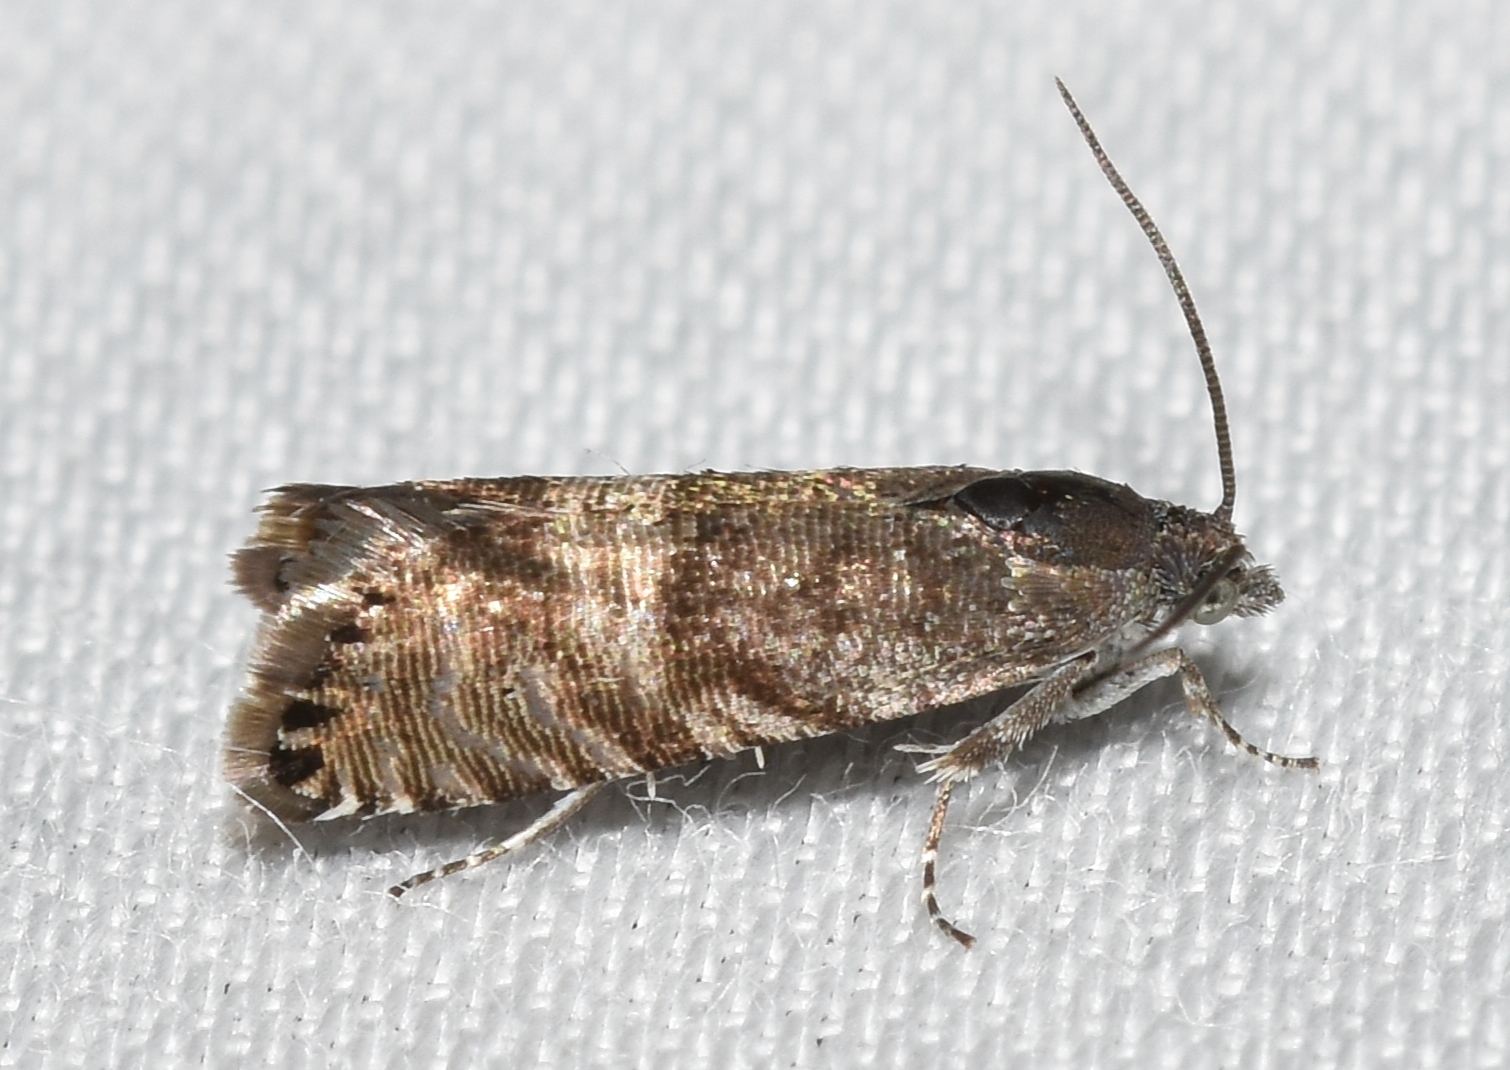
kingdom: Animalia
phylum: Arthropoda
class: Insecta
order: Lepidoptera
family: Tortricidae
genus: Sereda
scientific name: Sereda tautana
